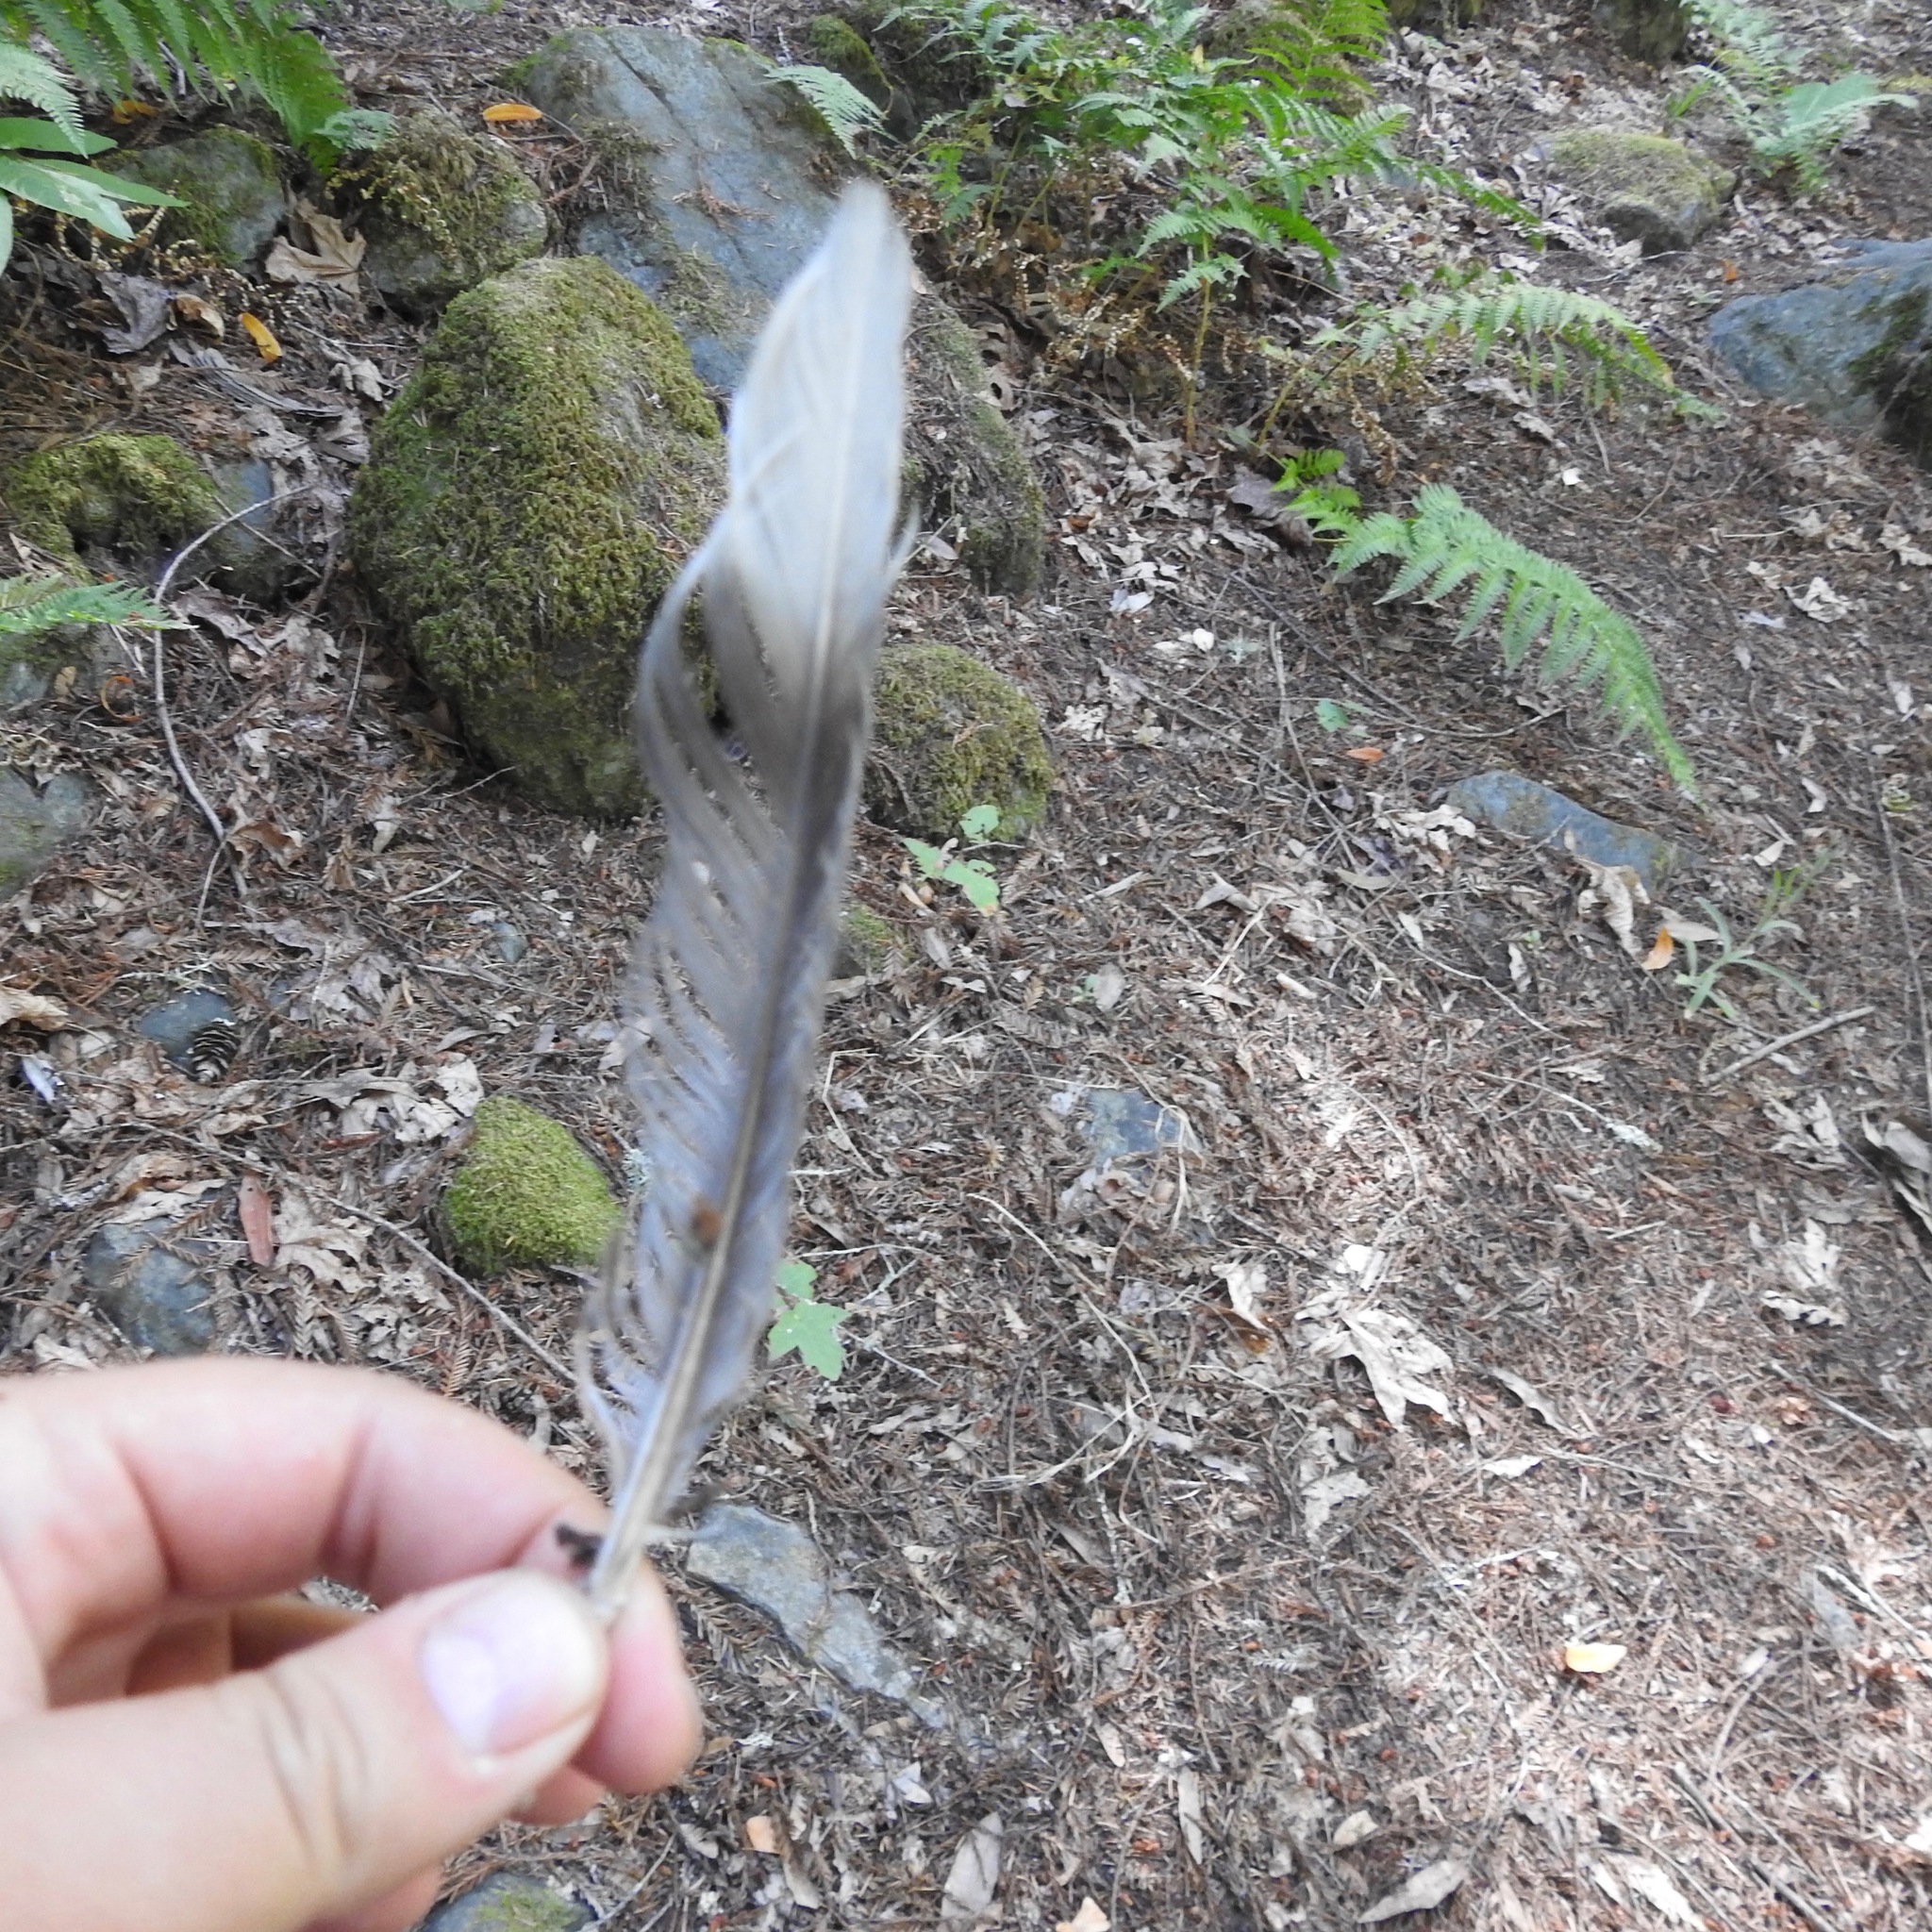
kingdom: Animalia
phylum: Chordata
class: Aves
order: Columbiformes
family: Columbidae
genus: Patagioenas
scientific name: Patagioenas fasciata
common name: Band-tailed pigeon
